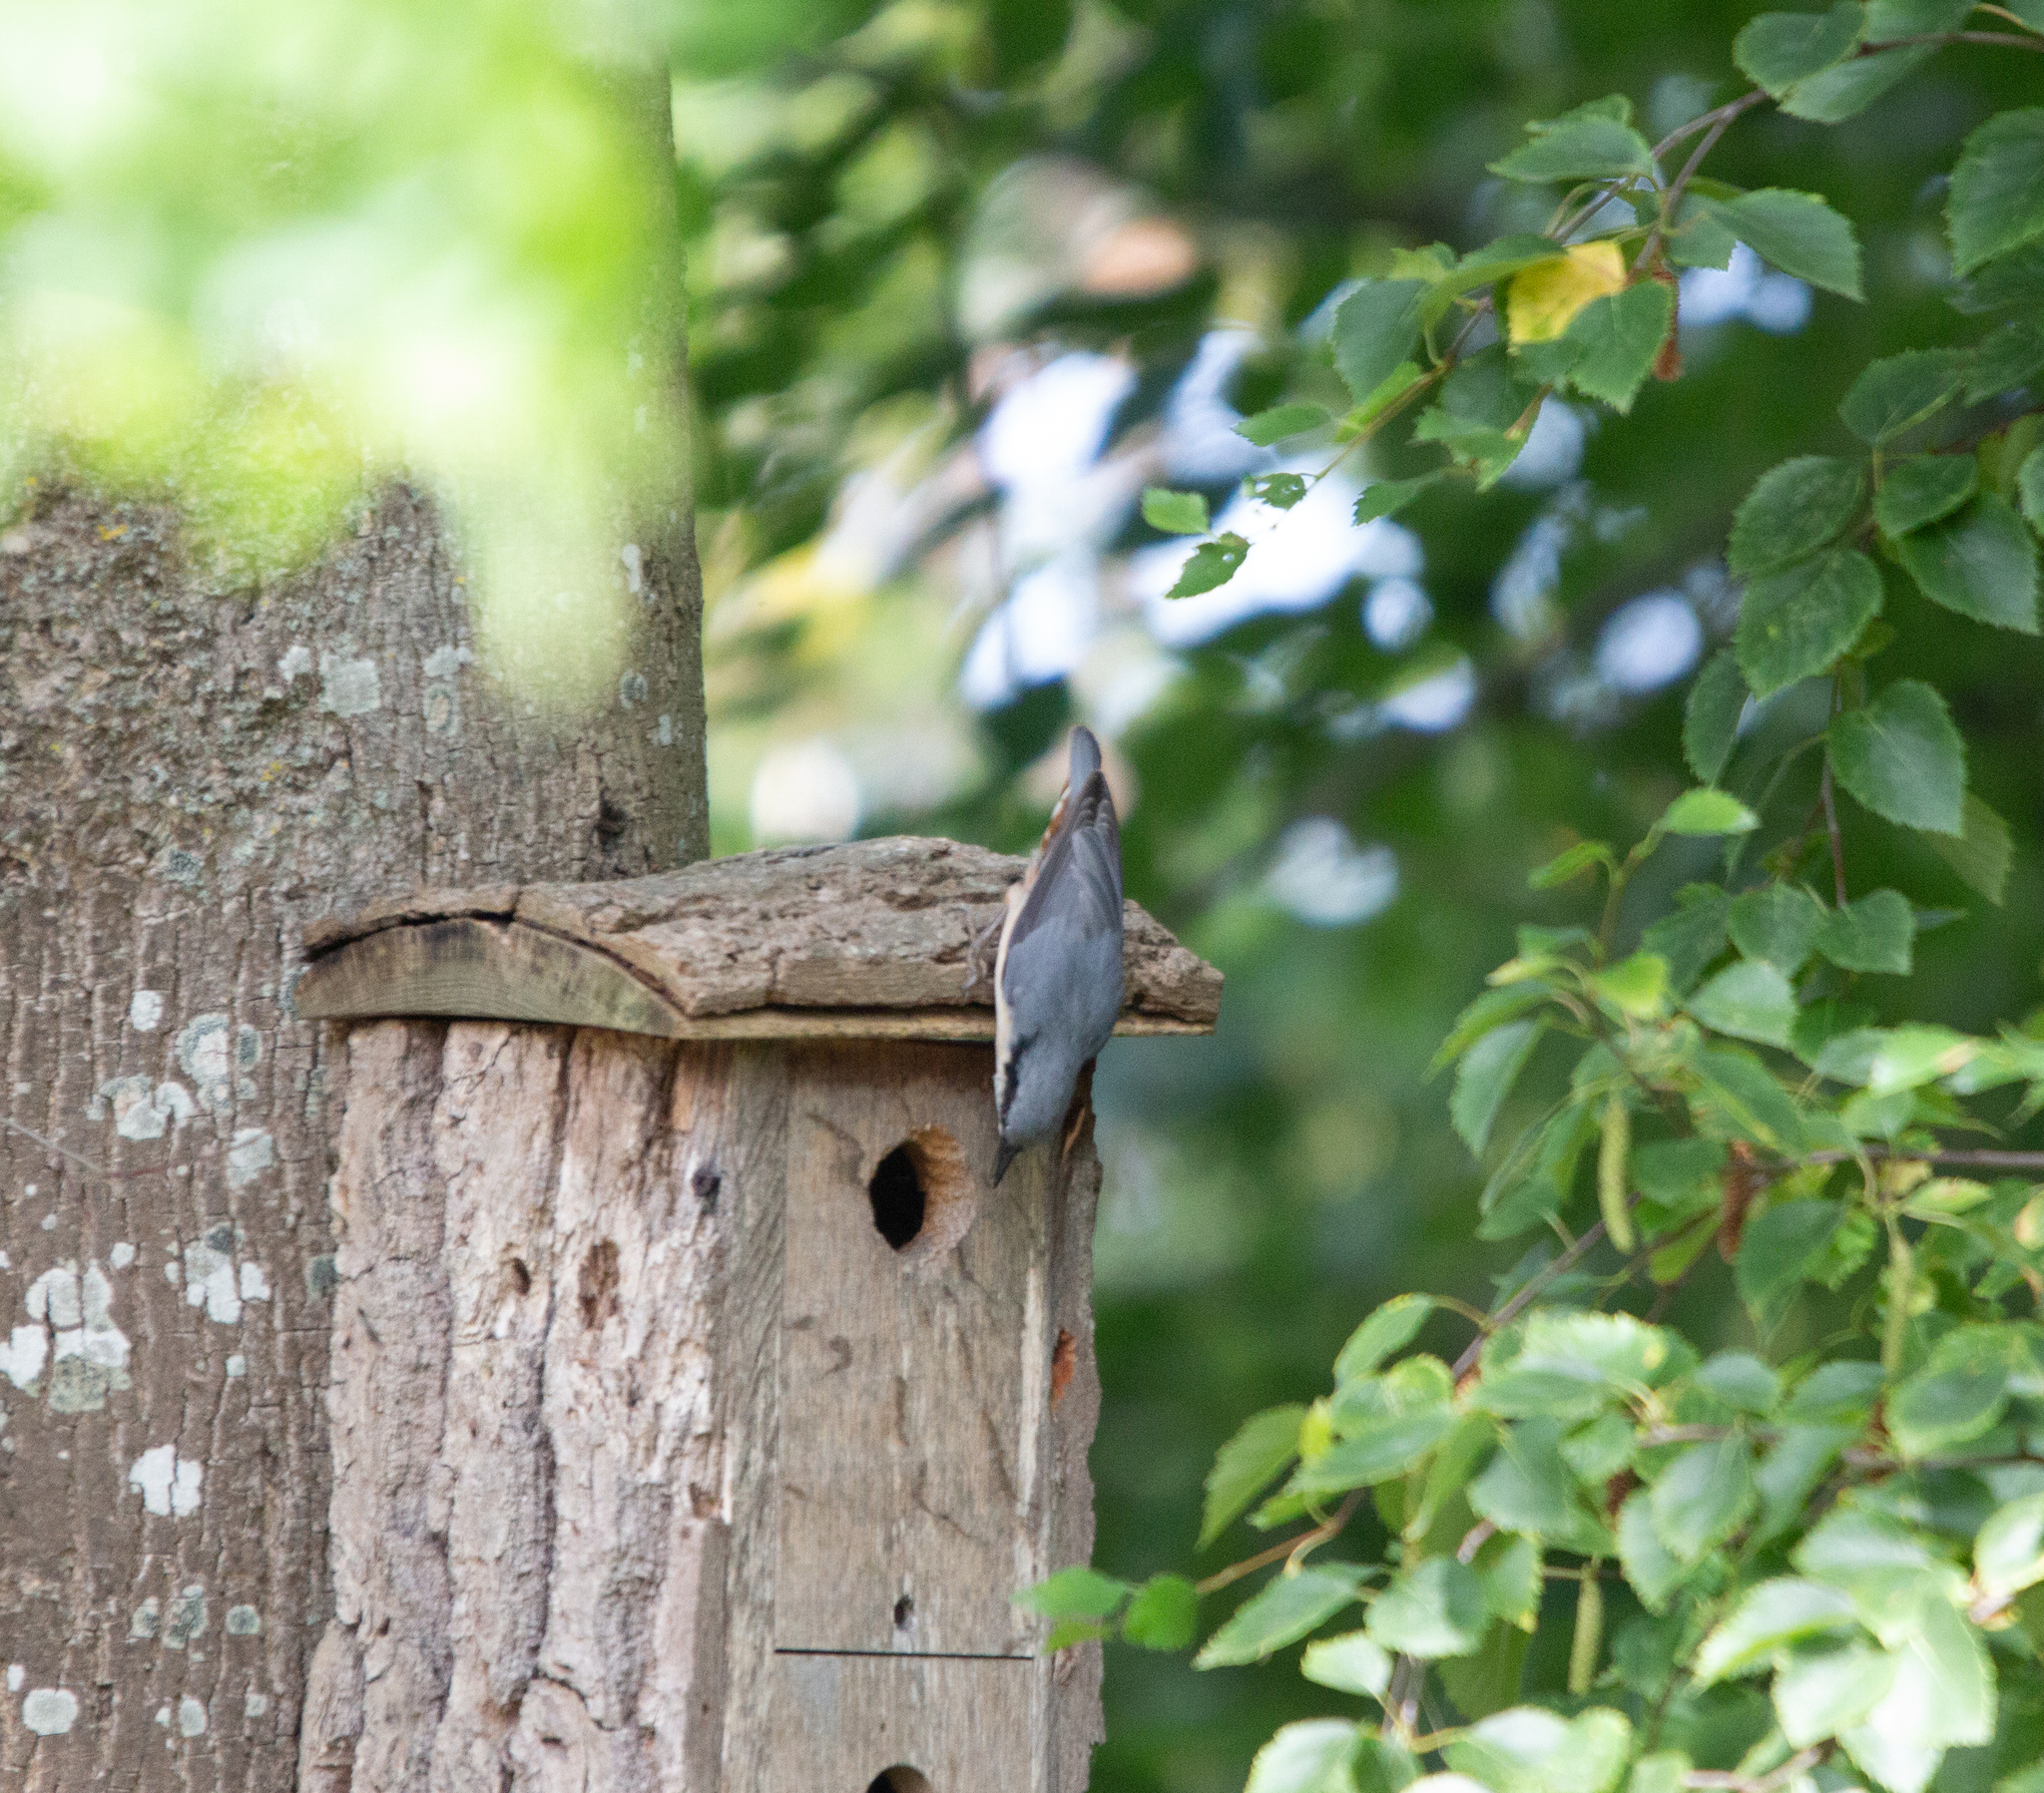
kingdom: Animalia
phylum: Chordata
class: Aves
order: Passeriformes
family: Sittidae
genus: Sitta
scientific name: Sitta europaea
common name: Eurasian nuthatch
